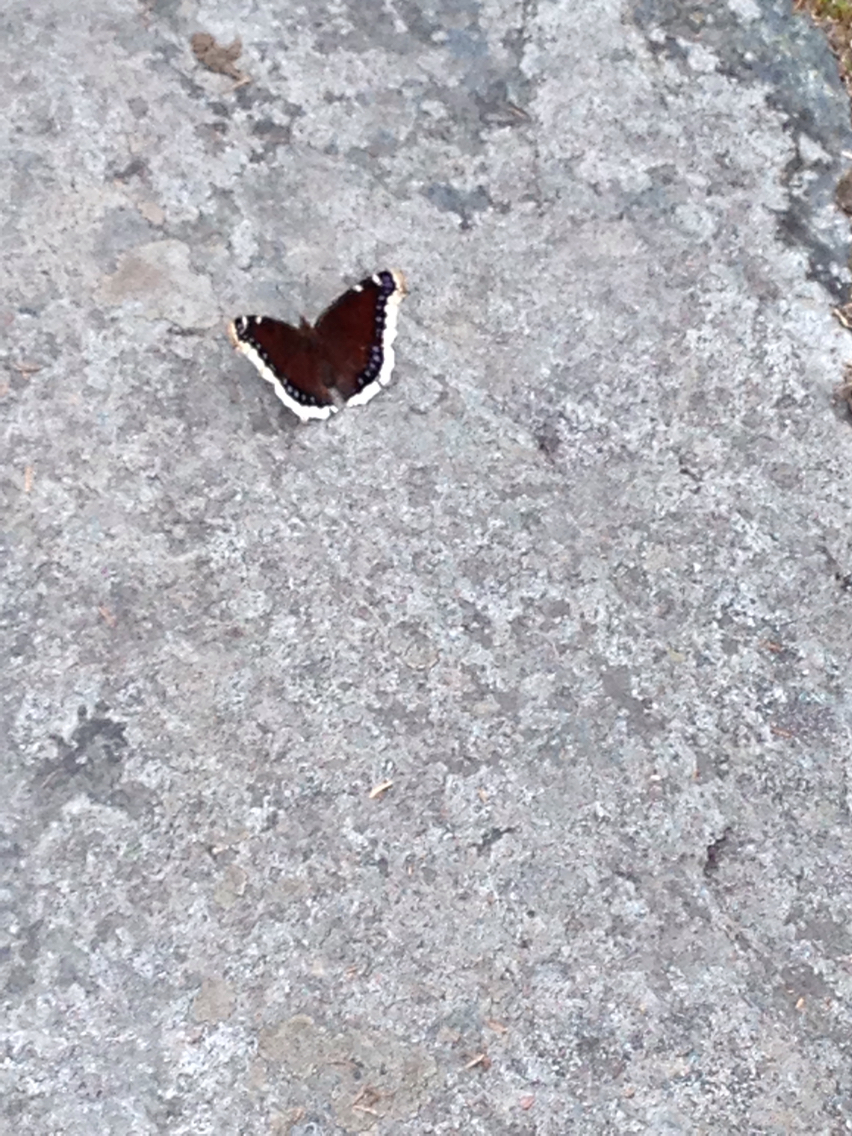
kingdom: Animalia
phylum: Arthropoda
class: Insecta
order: Lepidoptera
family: Nymphalidae
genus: Nymphalis
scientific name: Nymphalis antiopa
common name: Camberwell beauty
